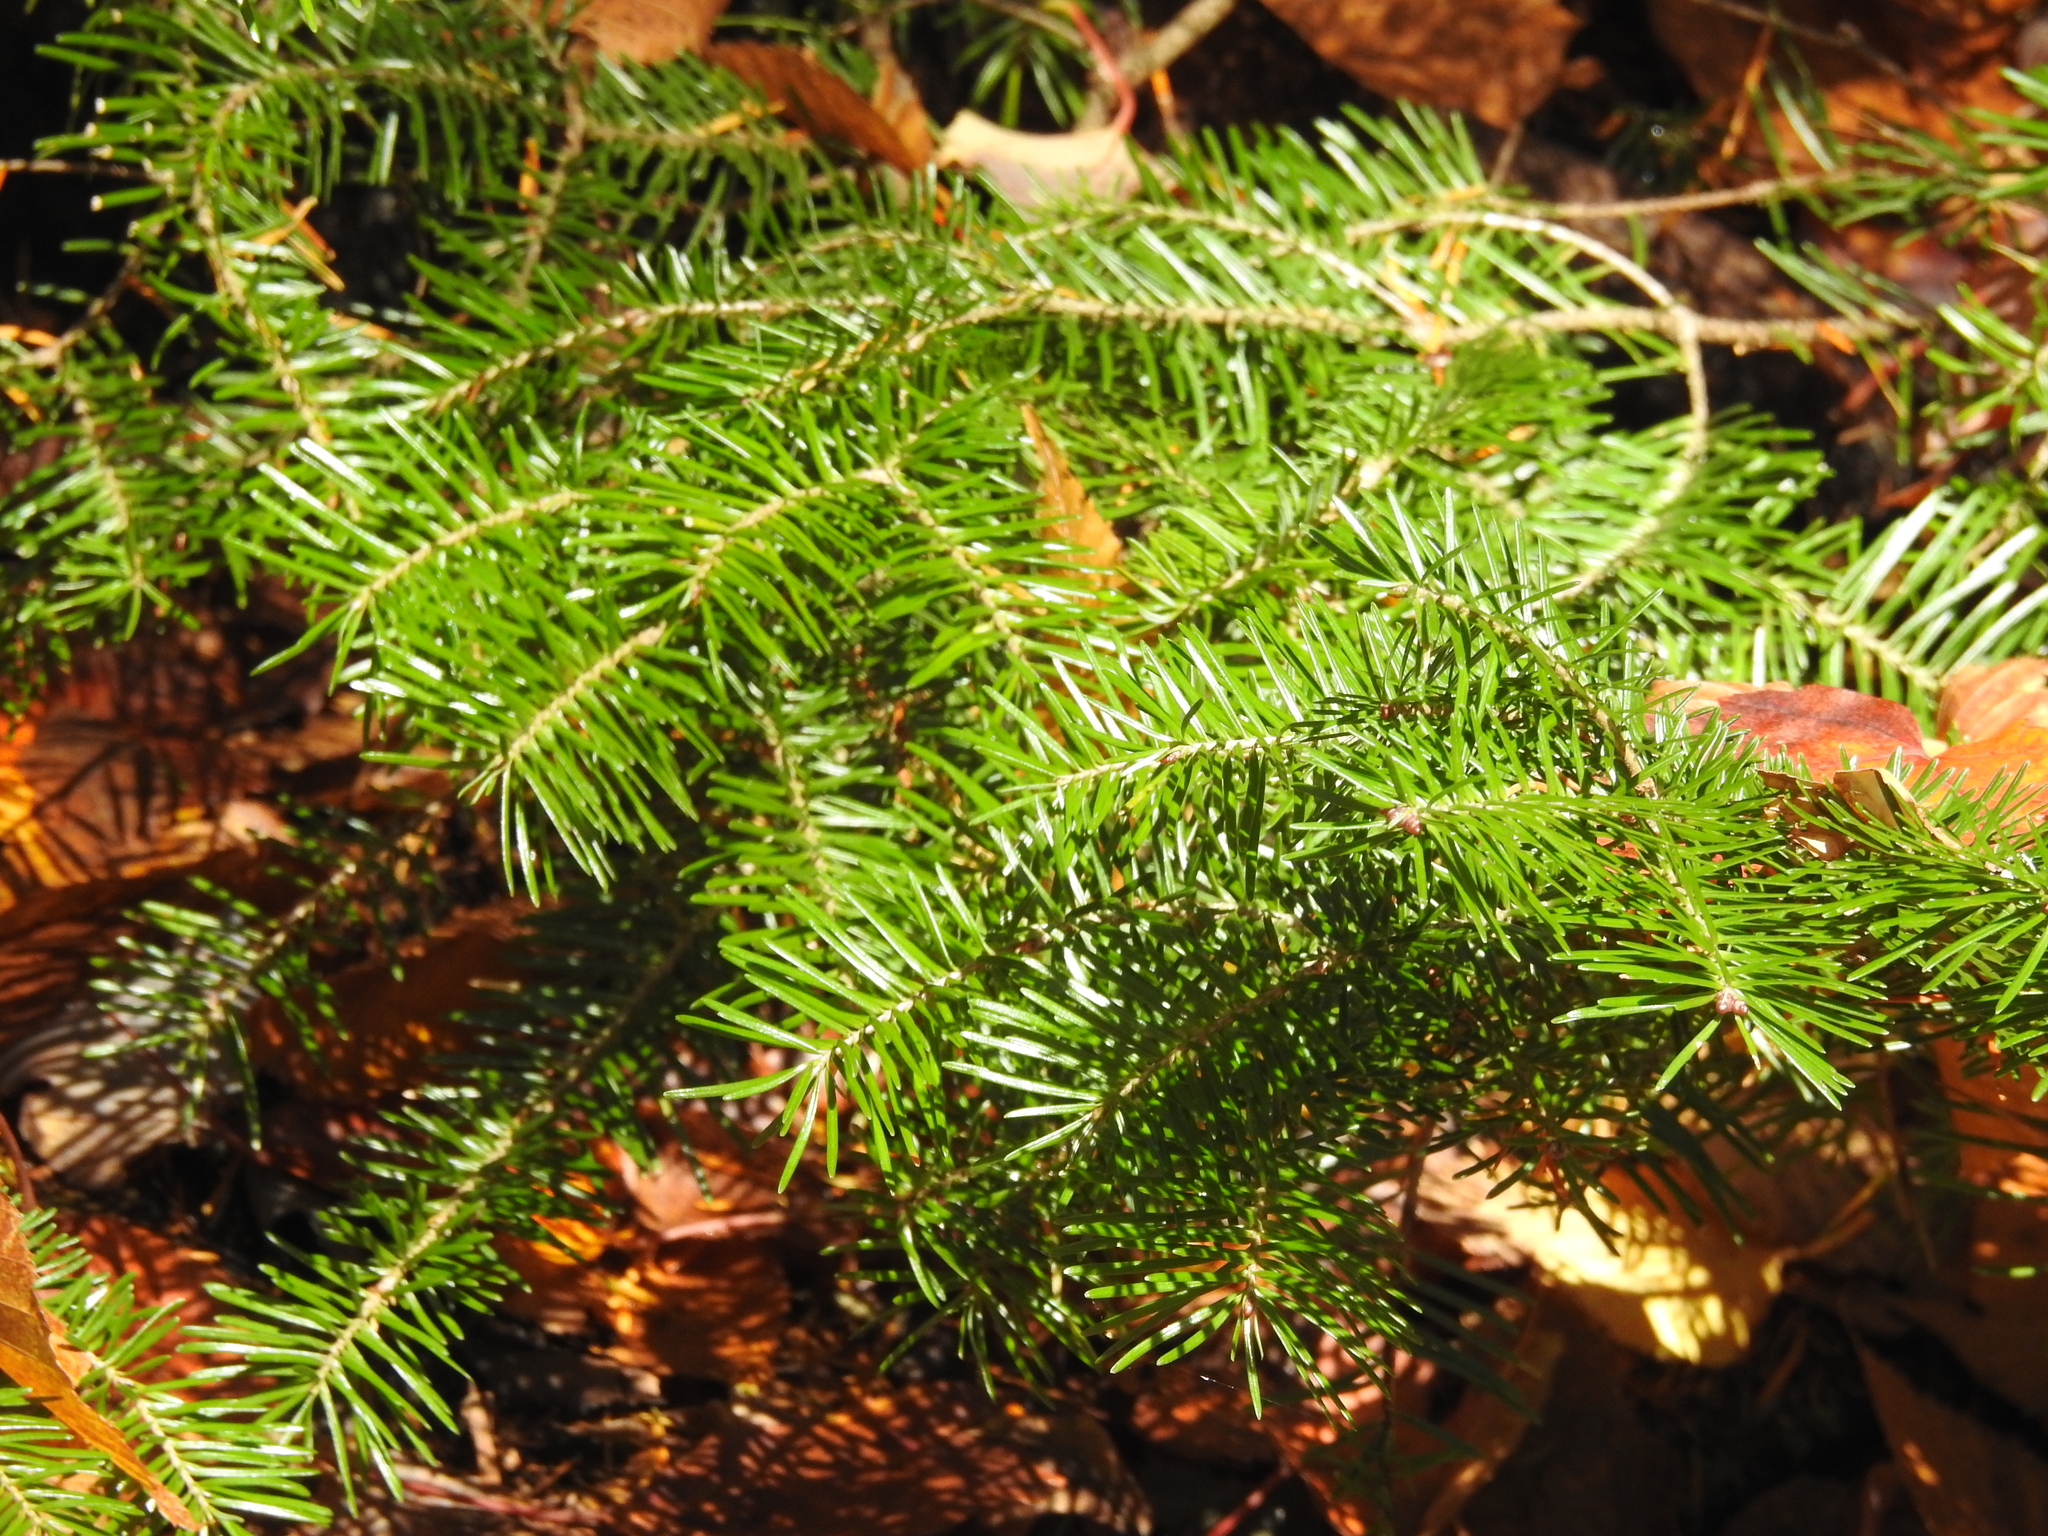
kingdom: Plantae
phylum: Tracheophyta
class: Pinopsida
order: Pinales
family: Pinaceae
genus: Abies
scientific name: Abies balsamea
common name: Balsam fir
